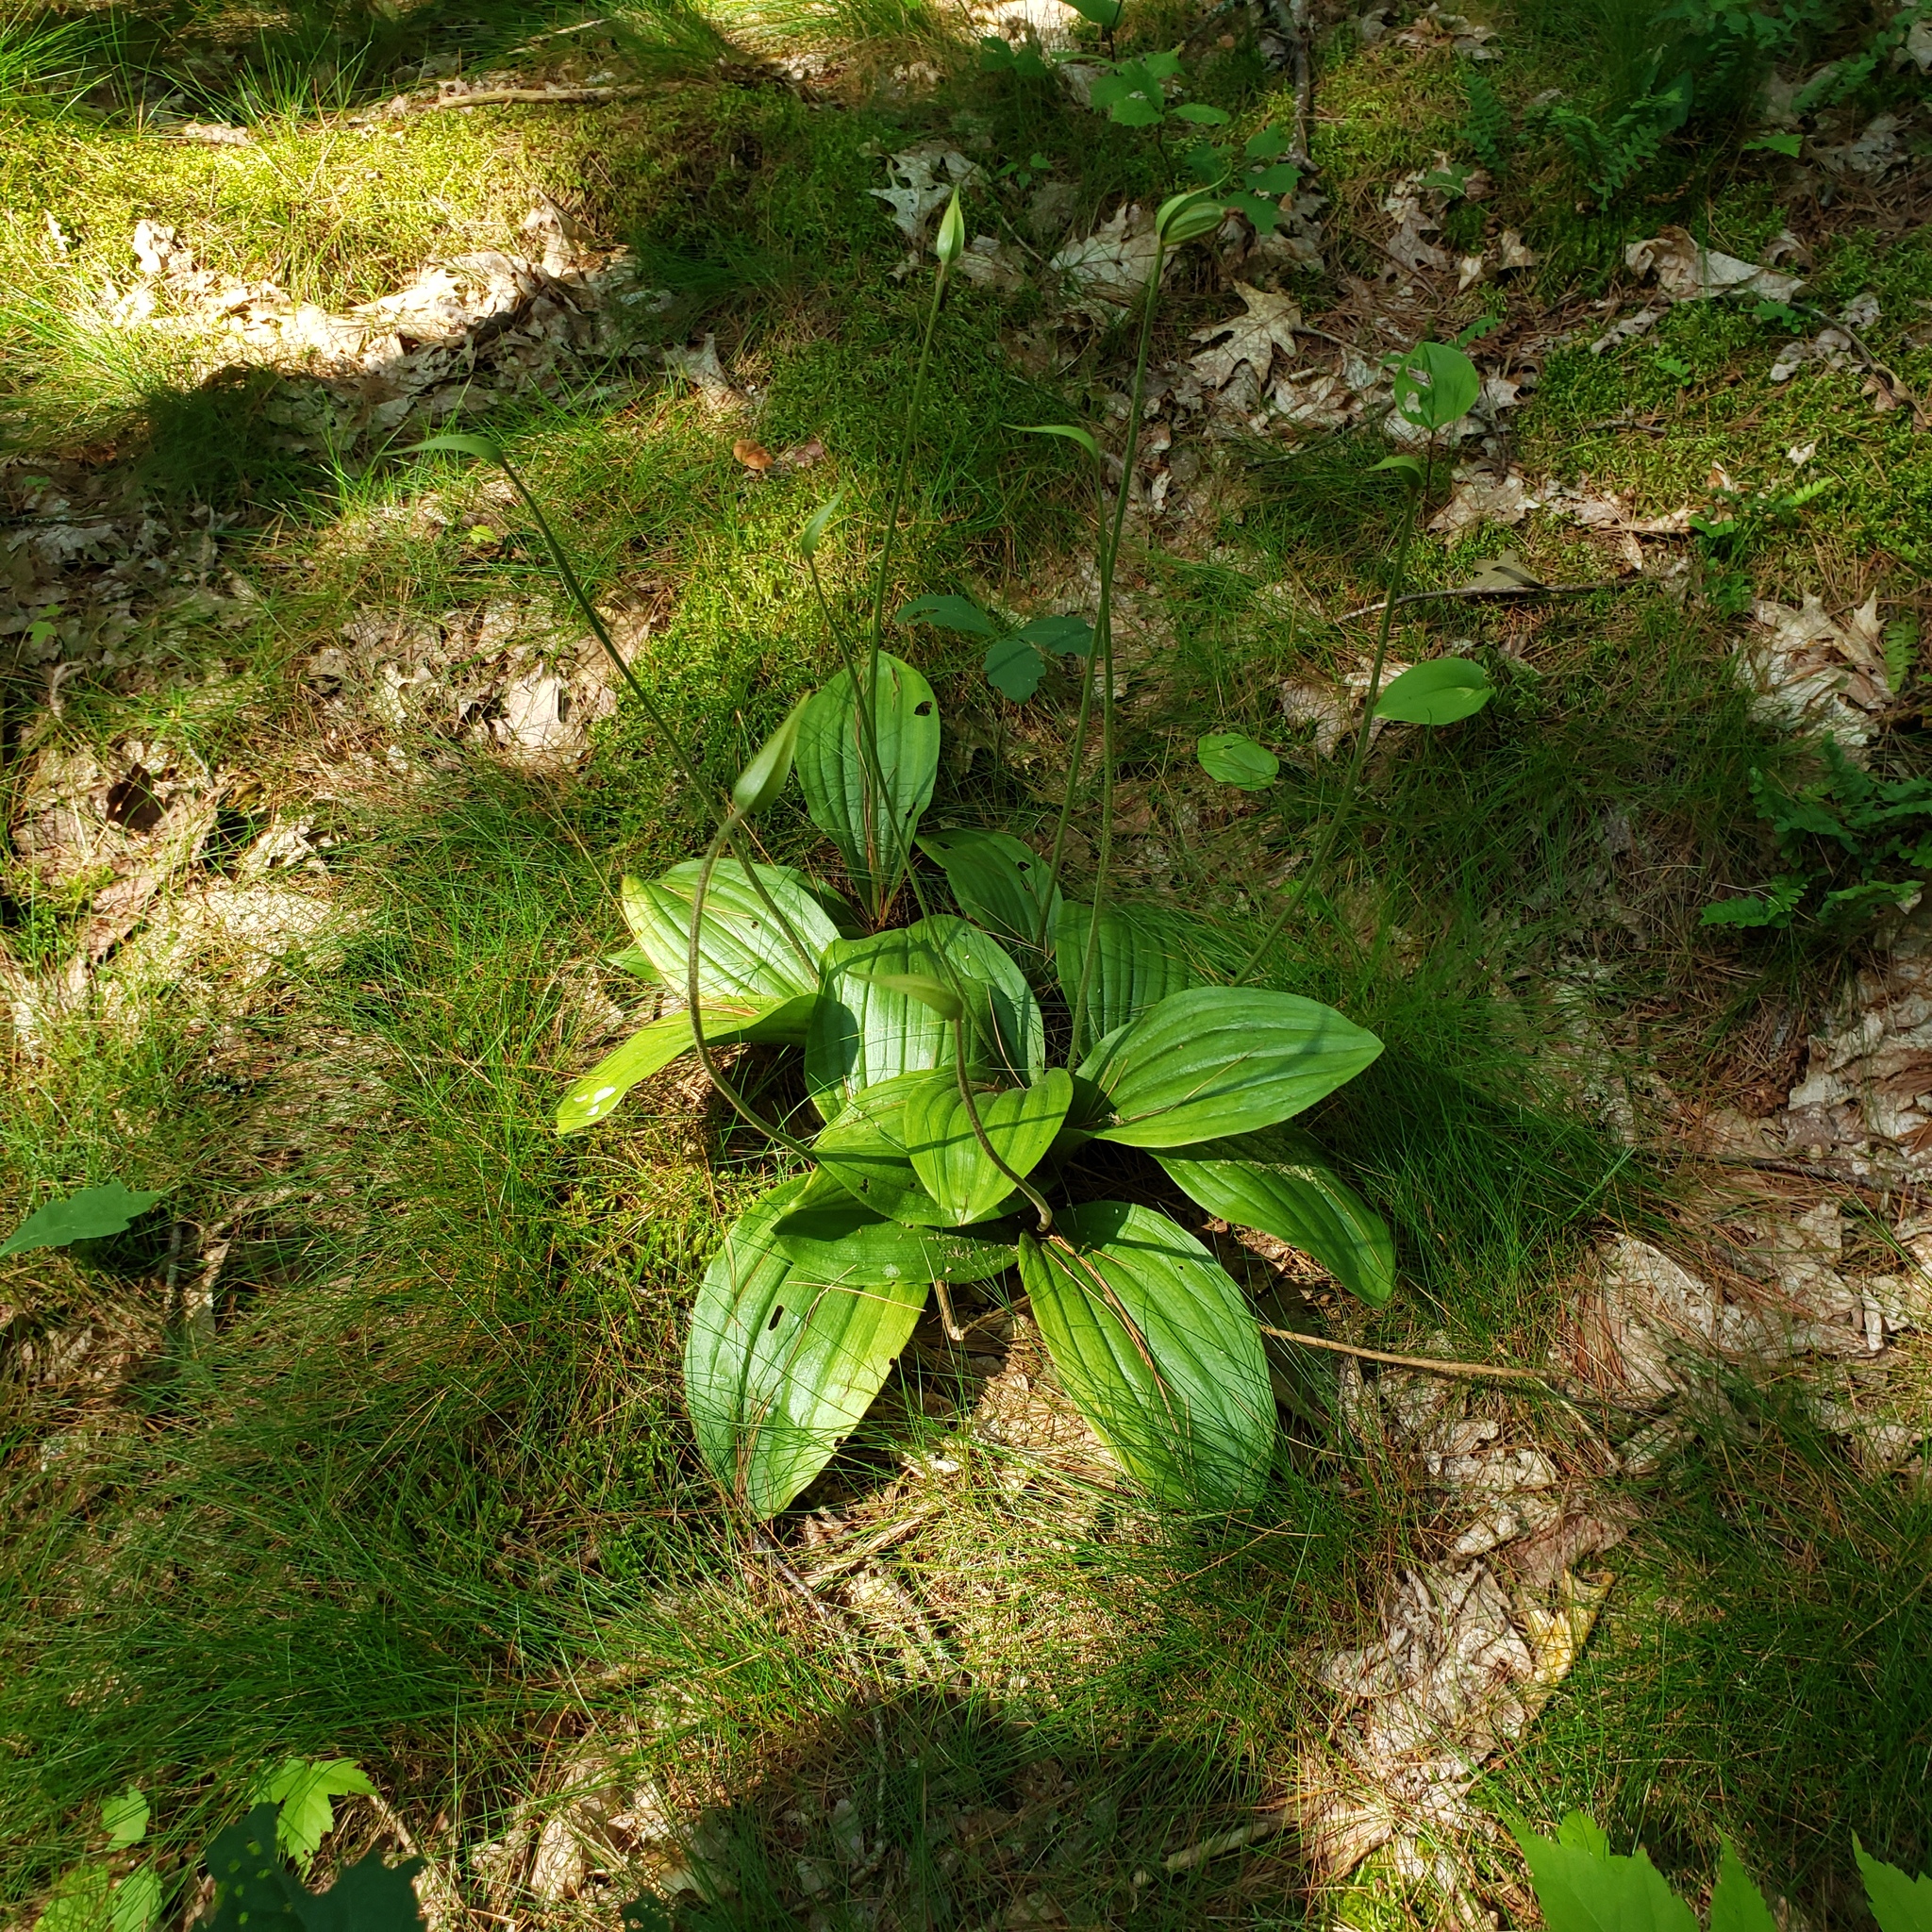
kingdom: Plantae
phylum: Tracheophyta
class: Liliopsida
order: Asparagales
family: Orchidaceae
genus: Cypripedium
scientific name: Cypripedium acaule
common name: Pink lady's-slipper
